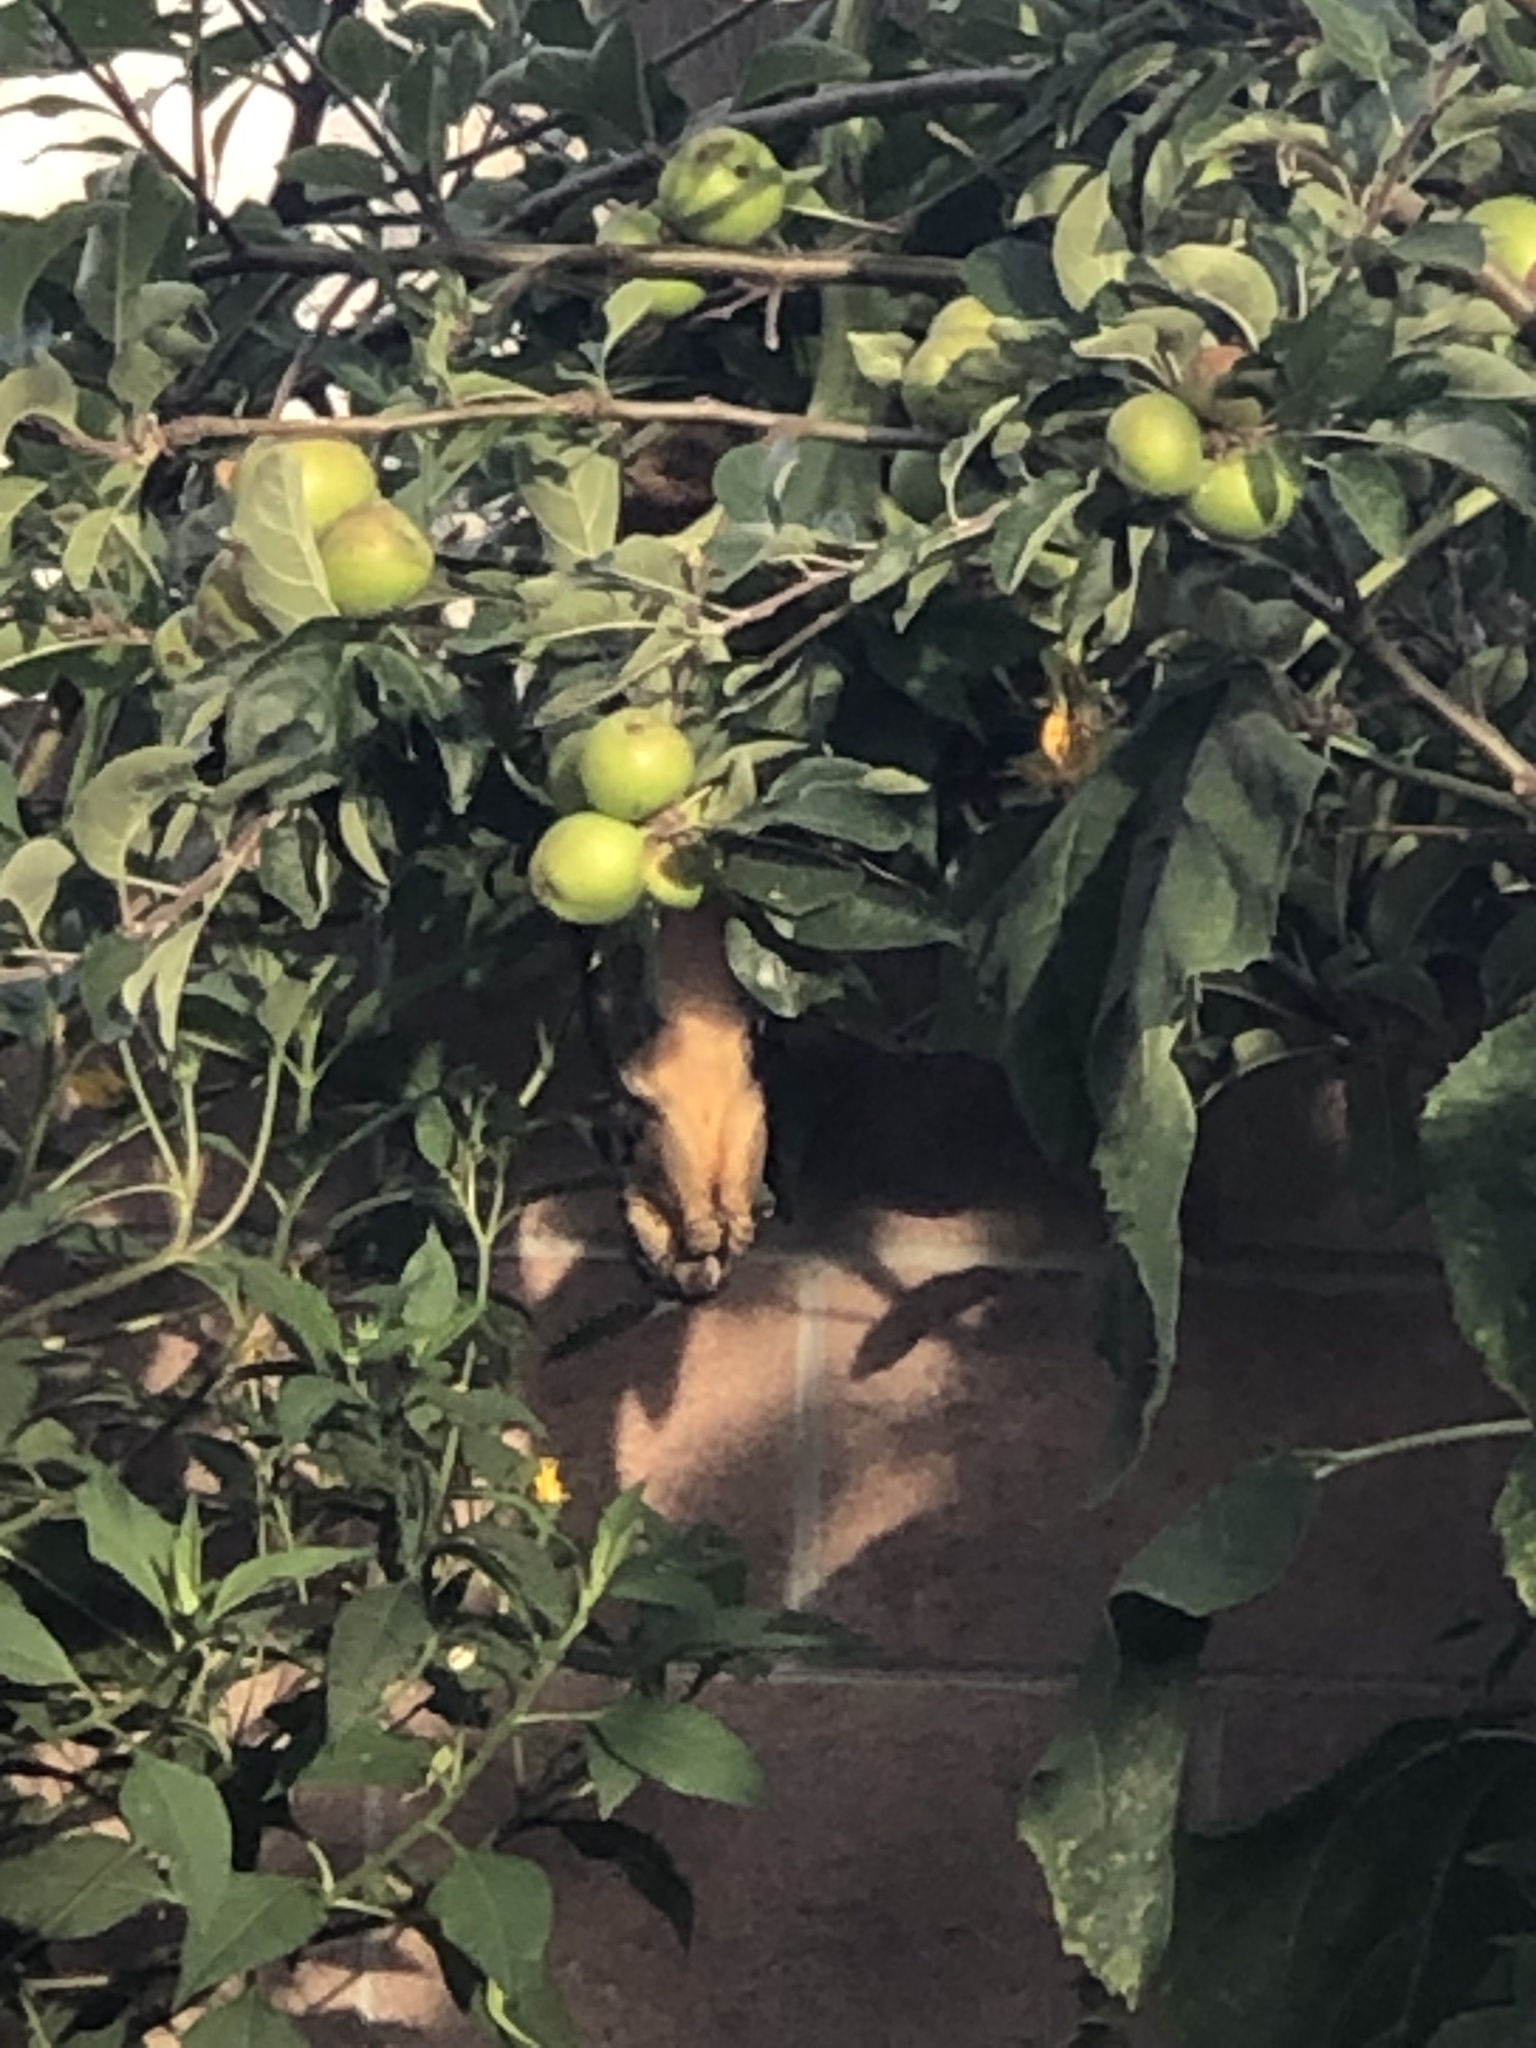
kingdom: Animalia
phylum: Chordata
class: Mammalia
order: Rodentia
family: Sciuridae
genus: Sciurus
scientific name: Sciurus niger
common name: Fox squirrel
